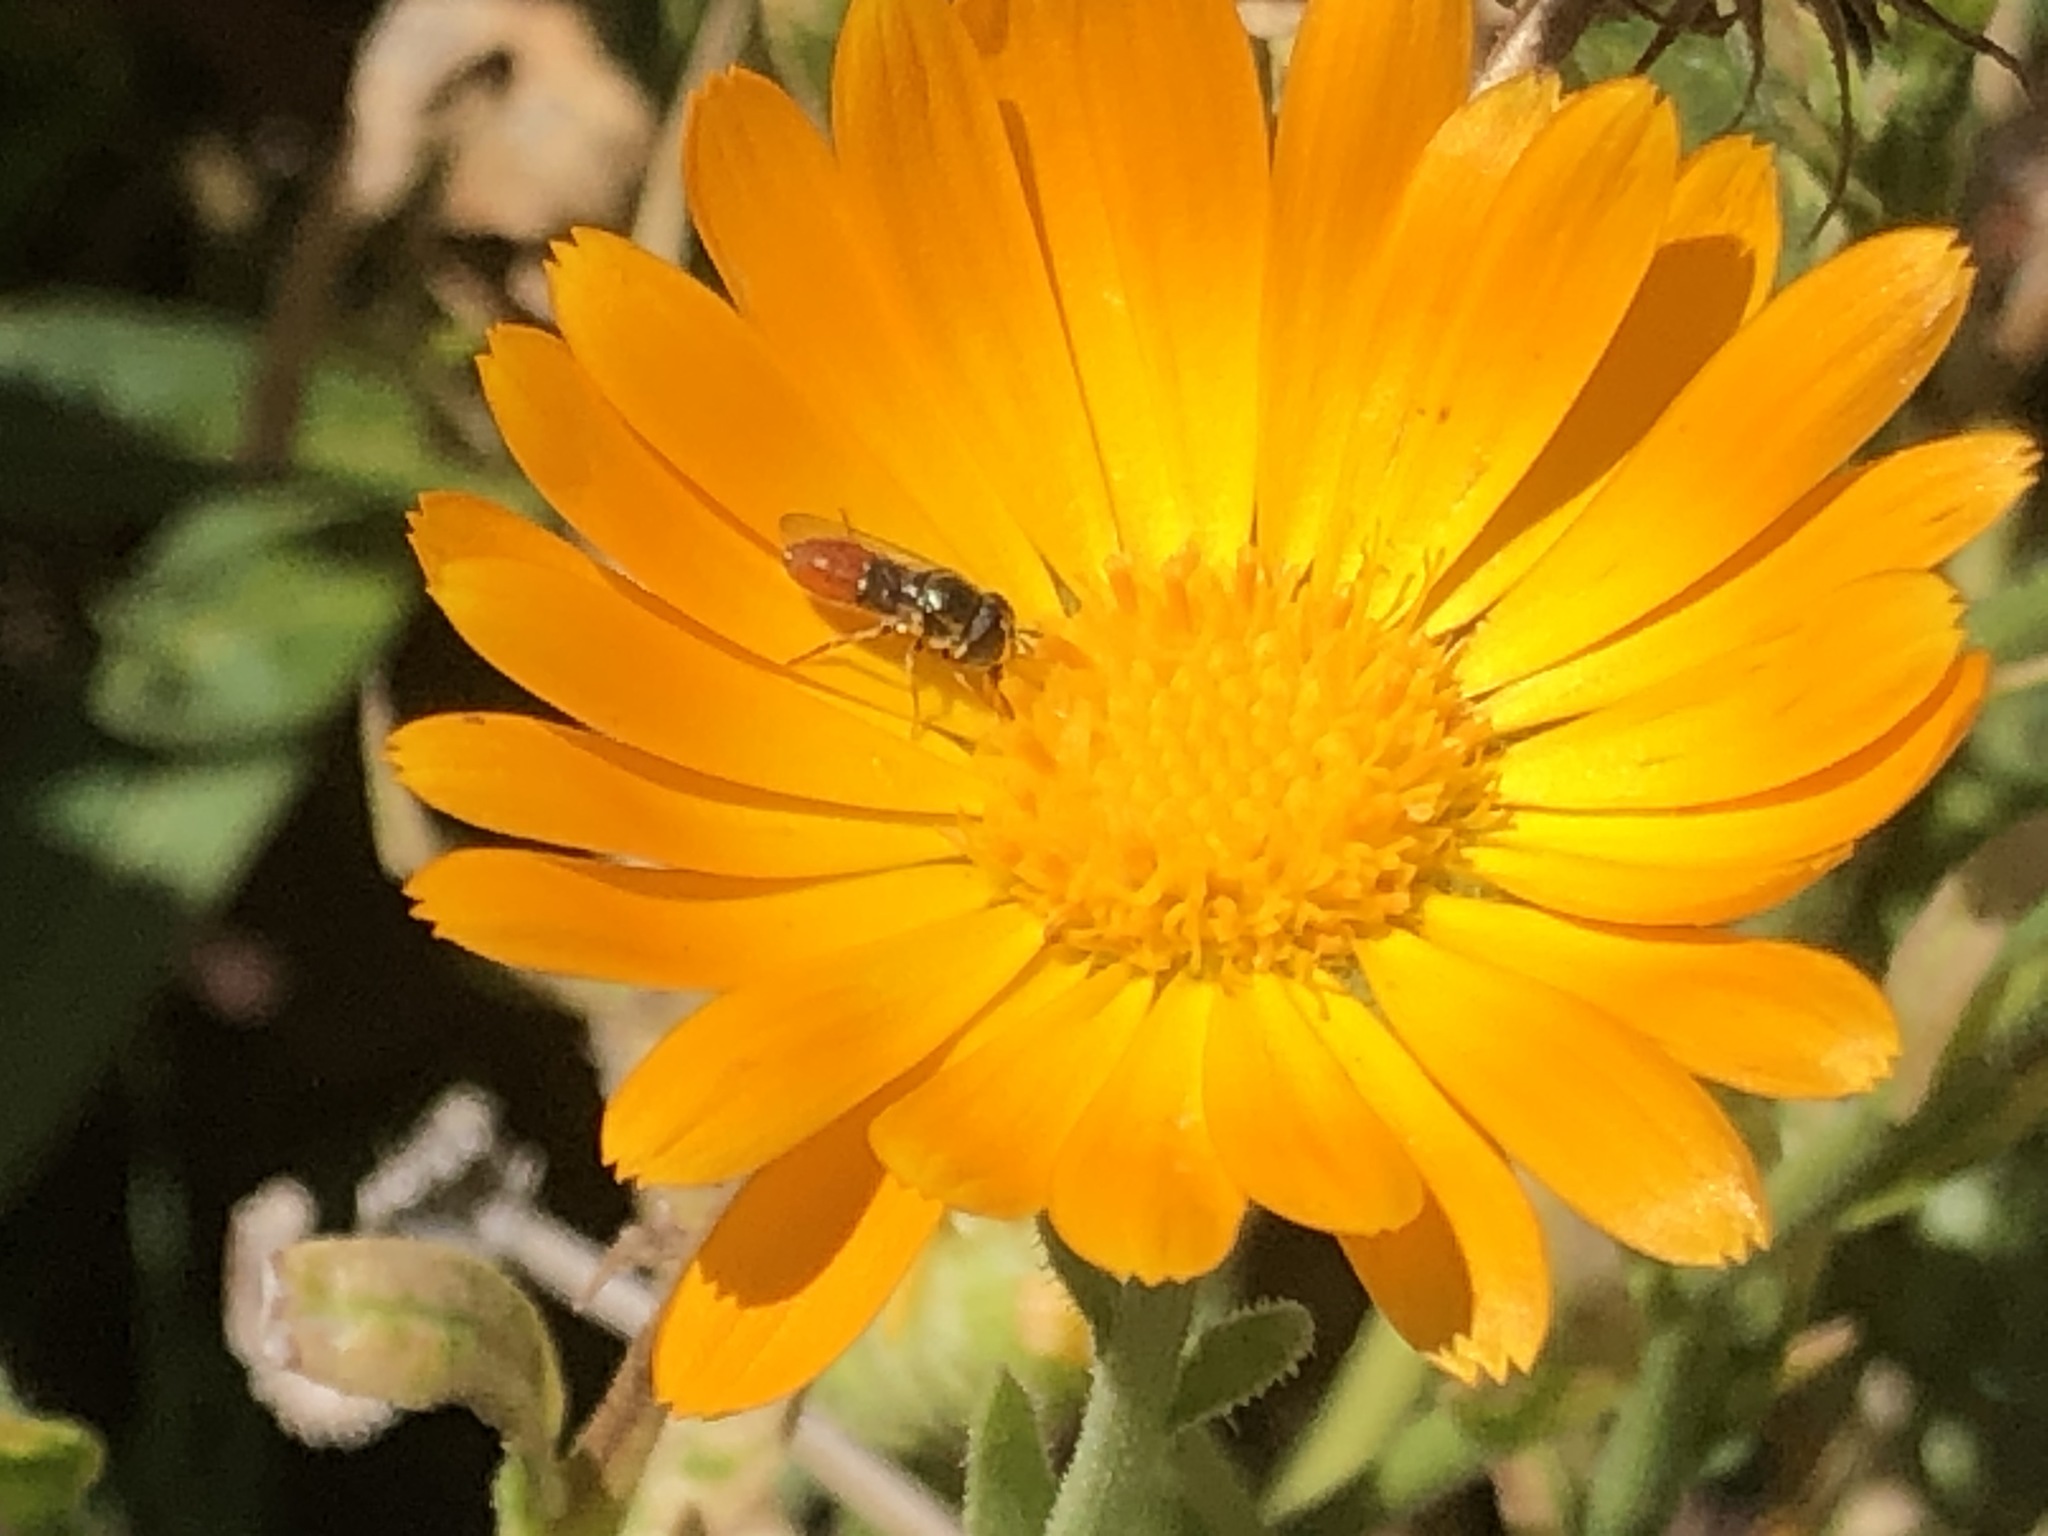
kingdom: Animalia
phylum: Arthropoda
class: Insecta
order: Diptera
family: Syrphidae
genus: Paragus
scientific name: Paragus haemorrhous
